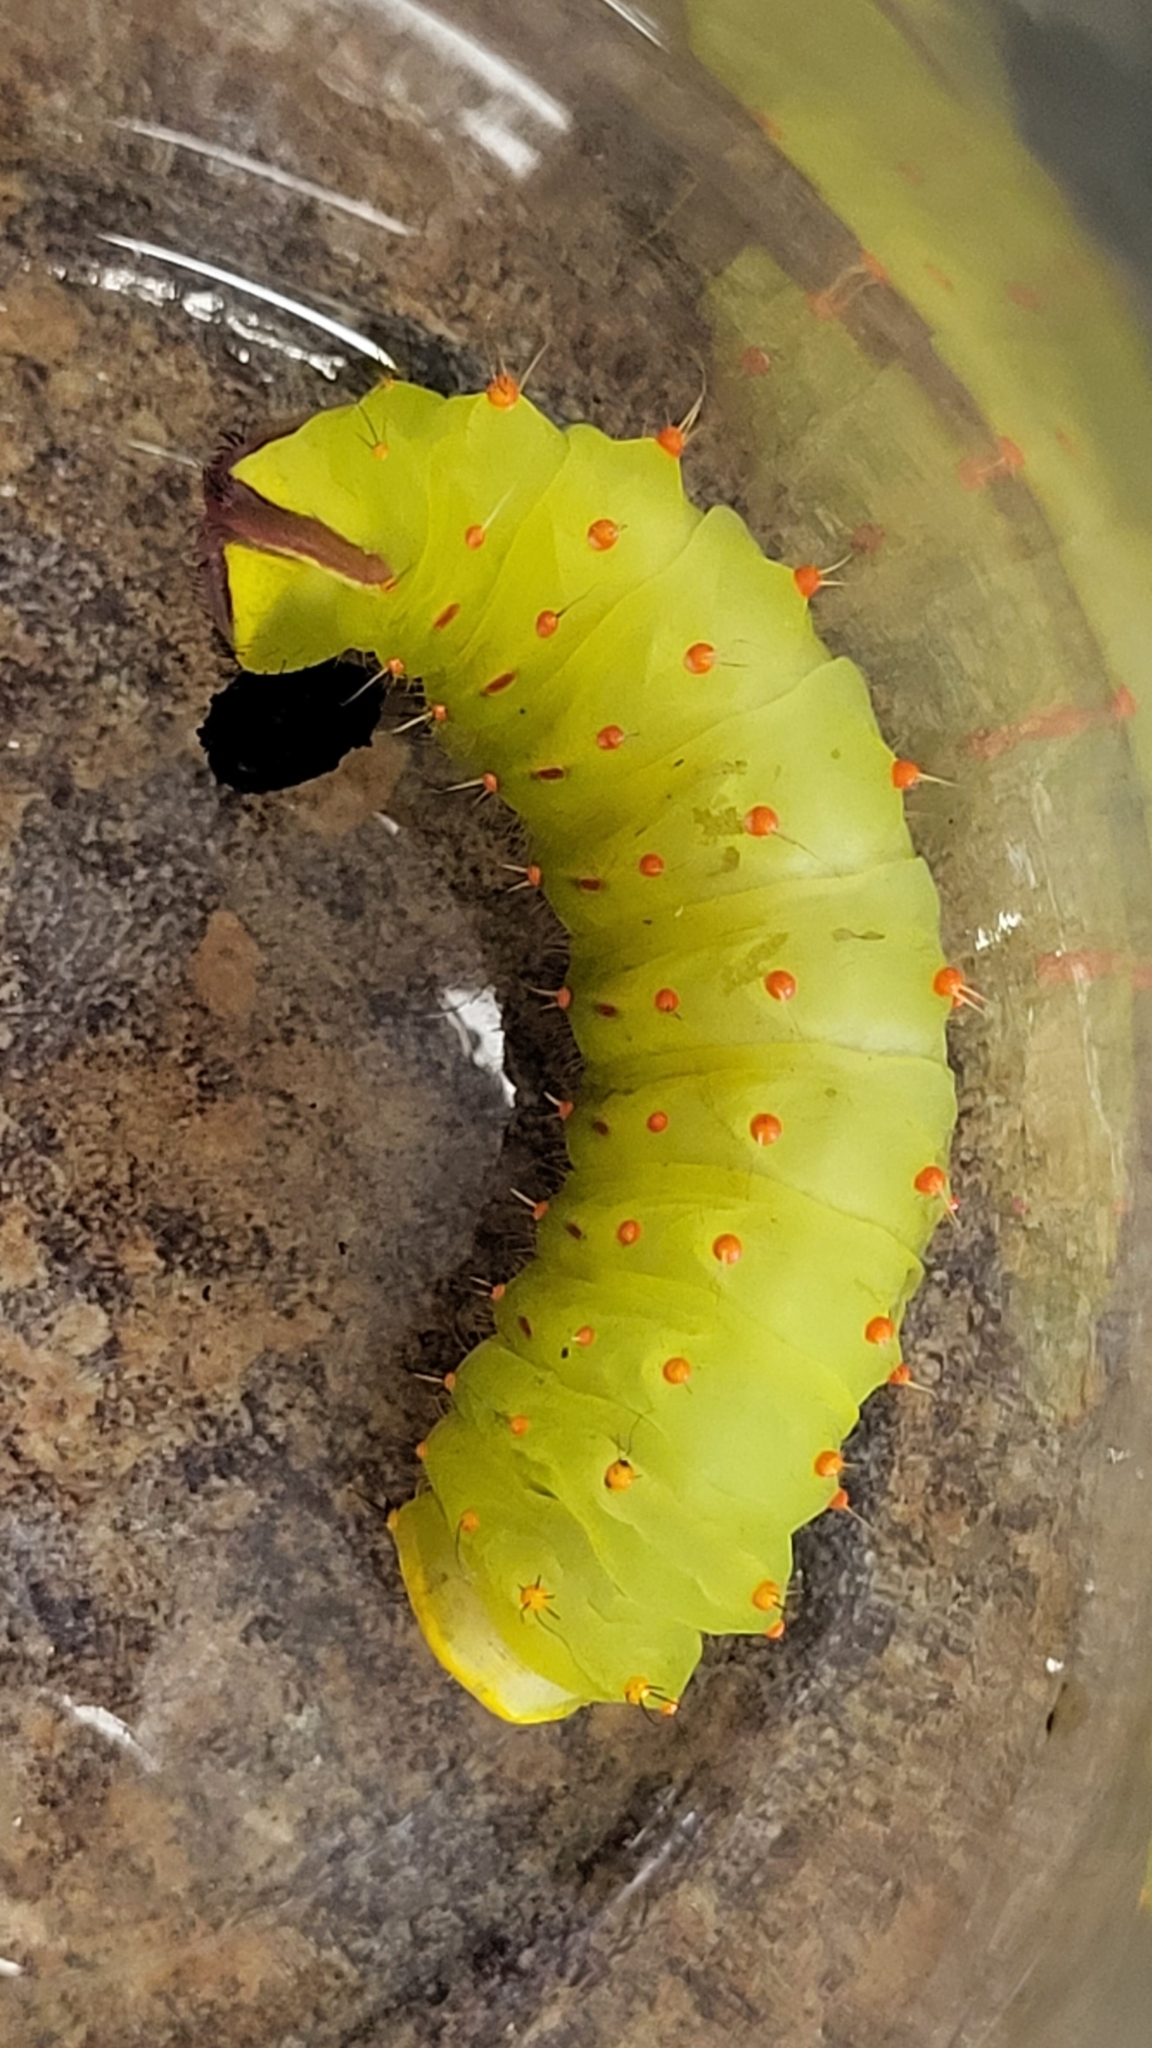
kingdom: Animalia
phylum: Arthropoda
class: Insecta
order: Lepidoptera
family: Saturniidae
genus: Antheraea
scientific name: Antheraea polyphemus
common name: Polyphemus moth
